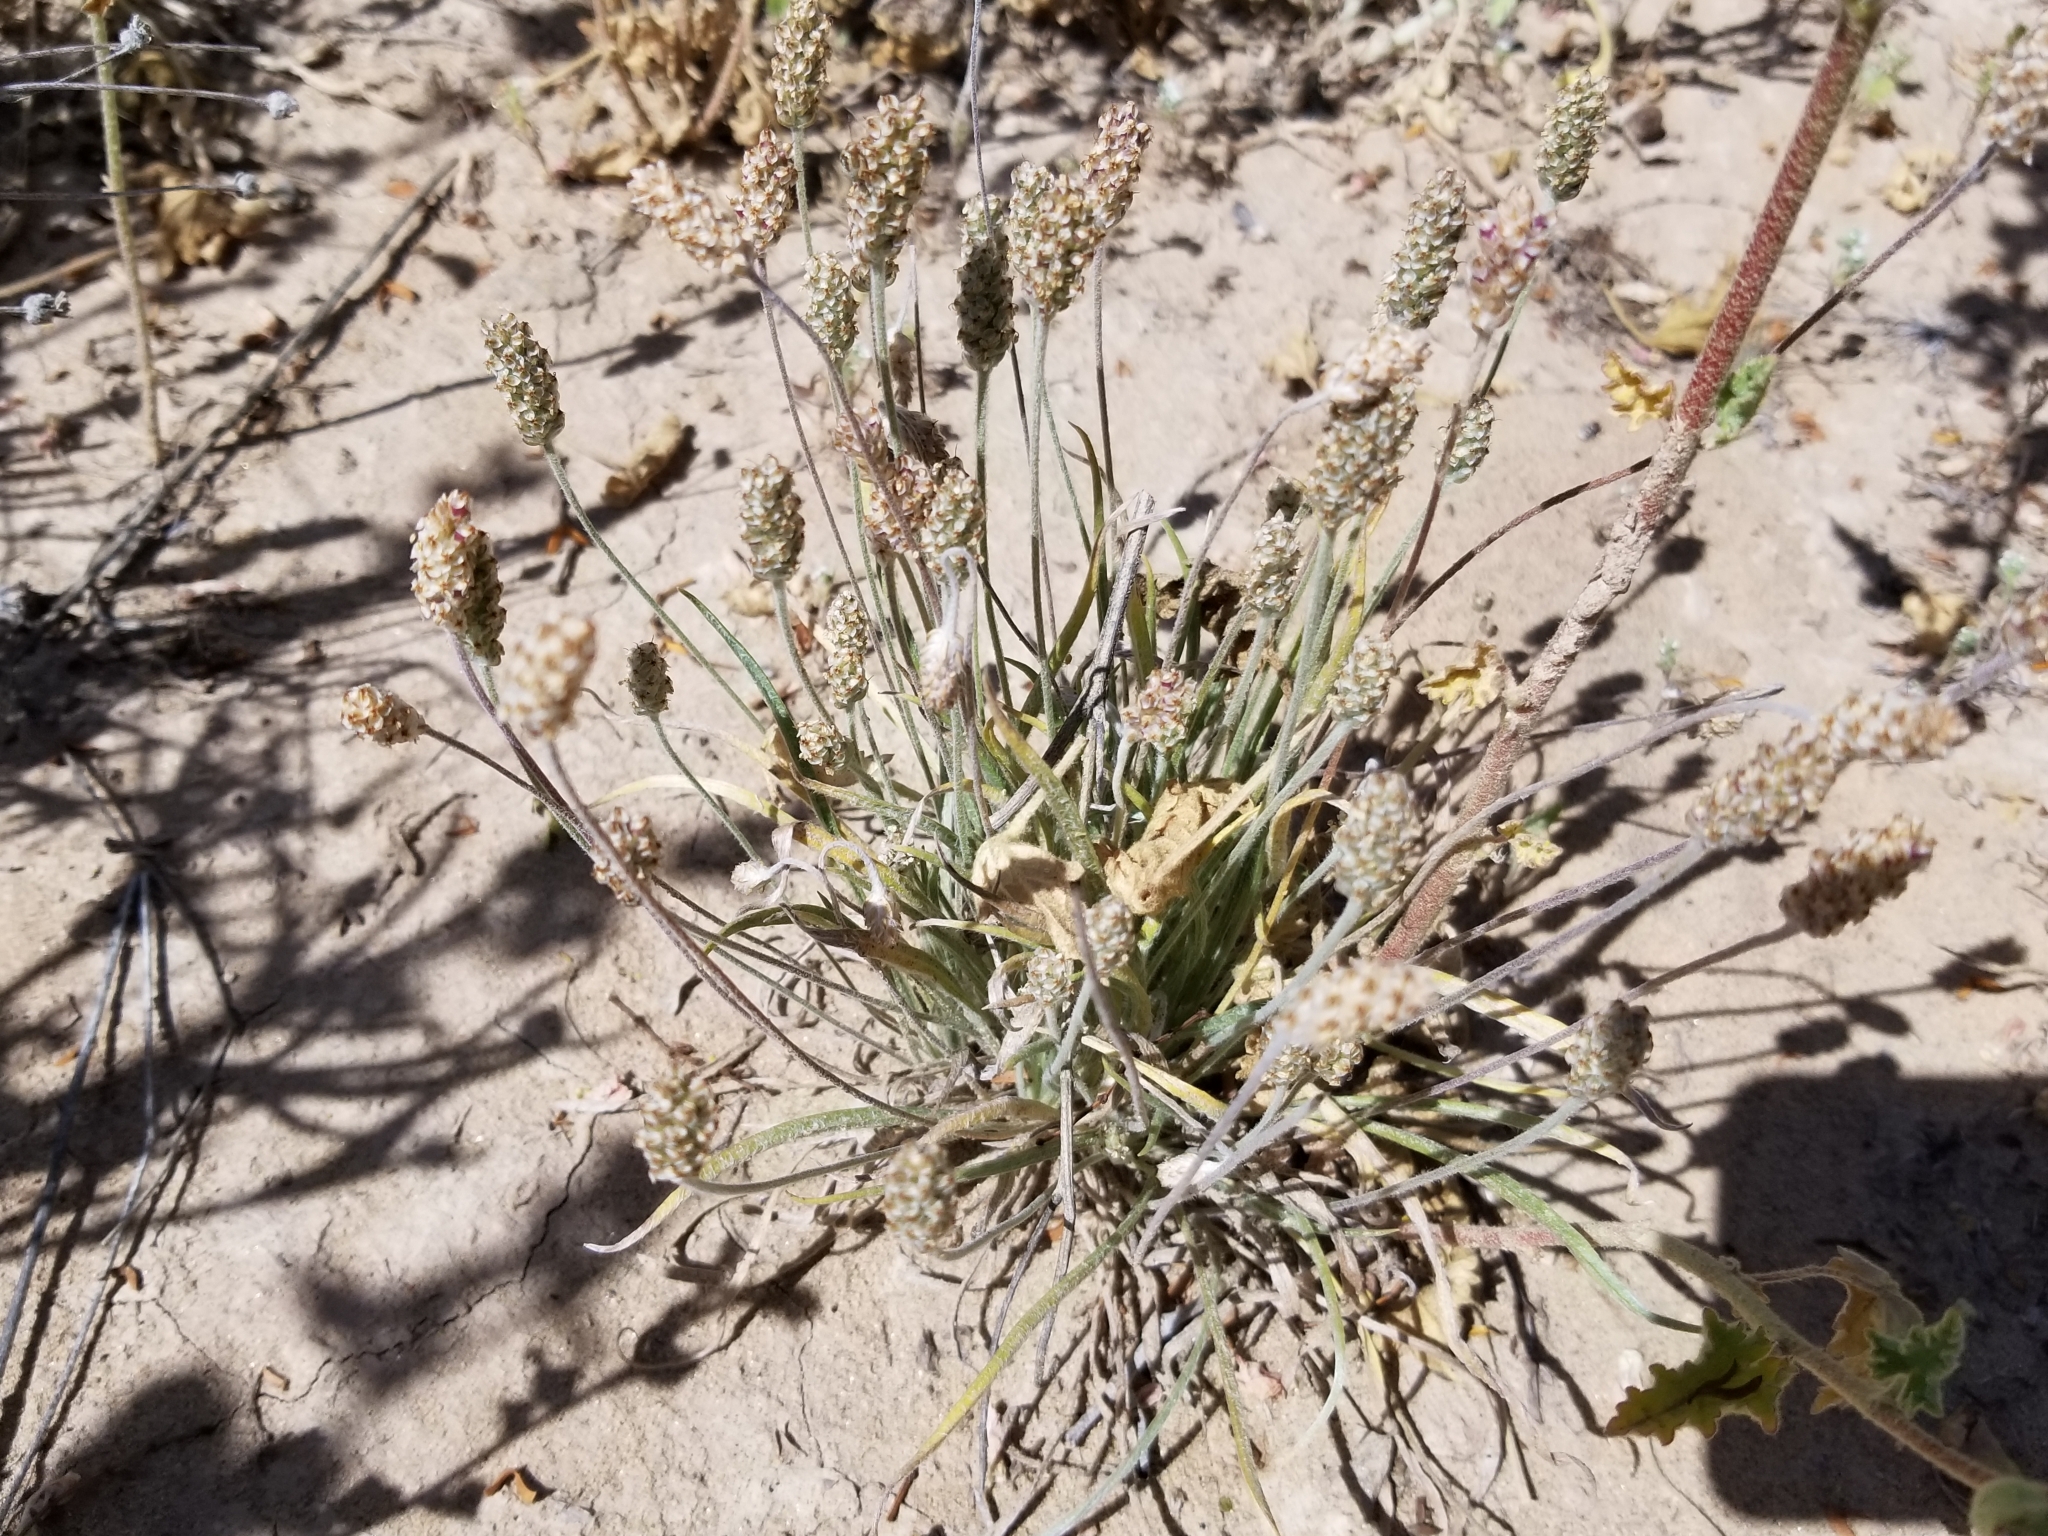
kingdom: Plantae
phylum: Tracheophyta
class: Magnoliopsida
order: Lamiales
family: Plantaginaceae
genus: Plantago
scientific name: Plantago ovata
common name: Blond plantain
